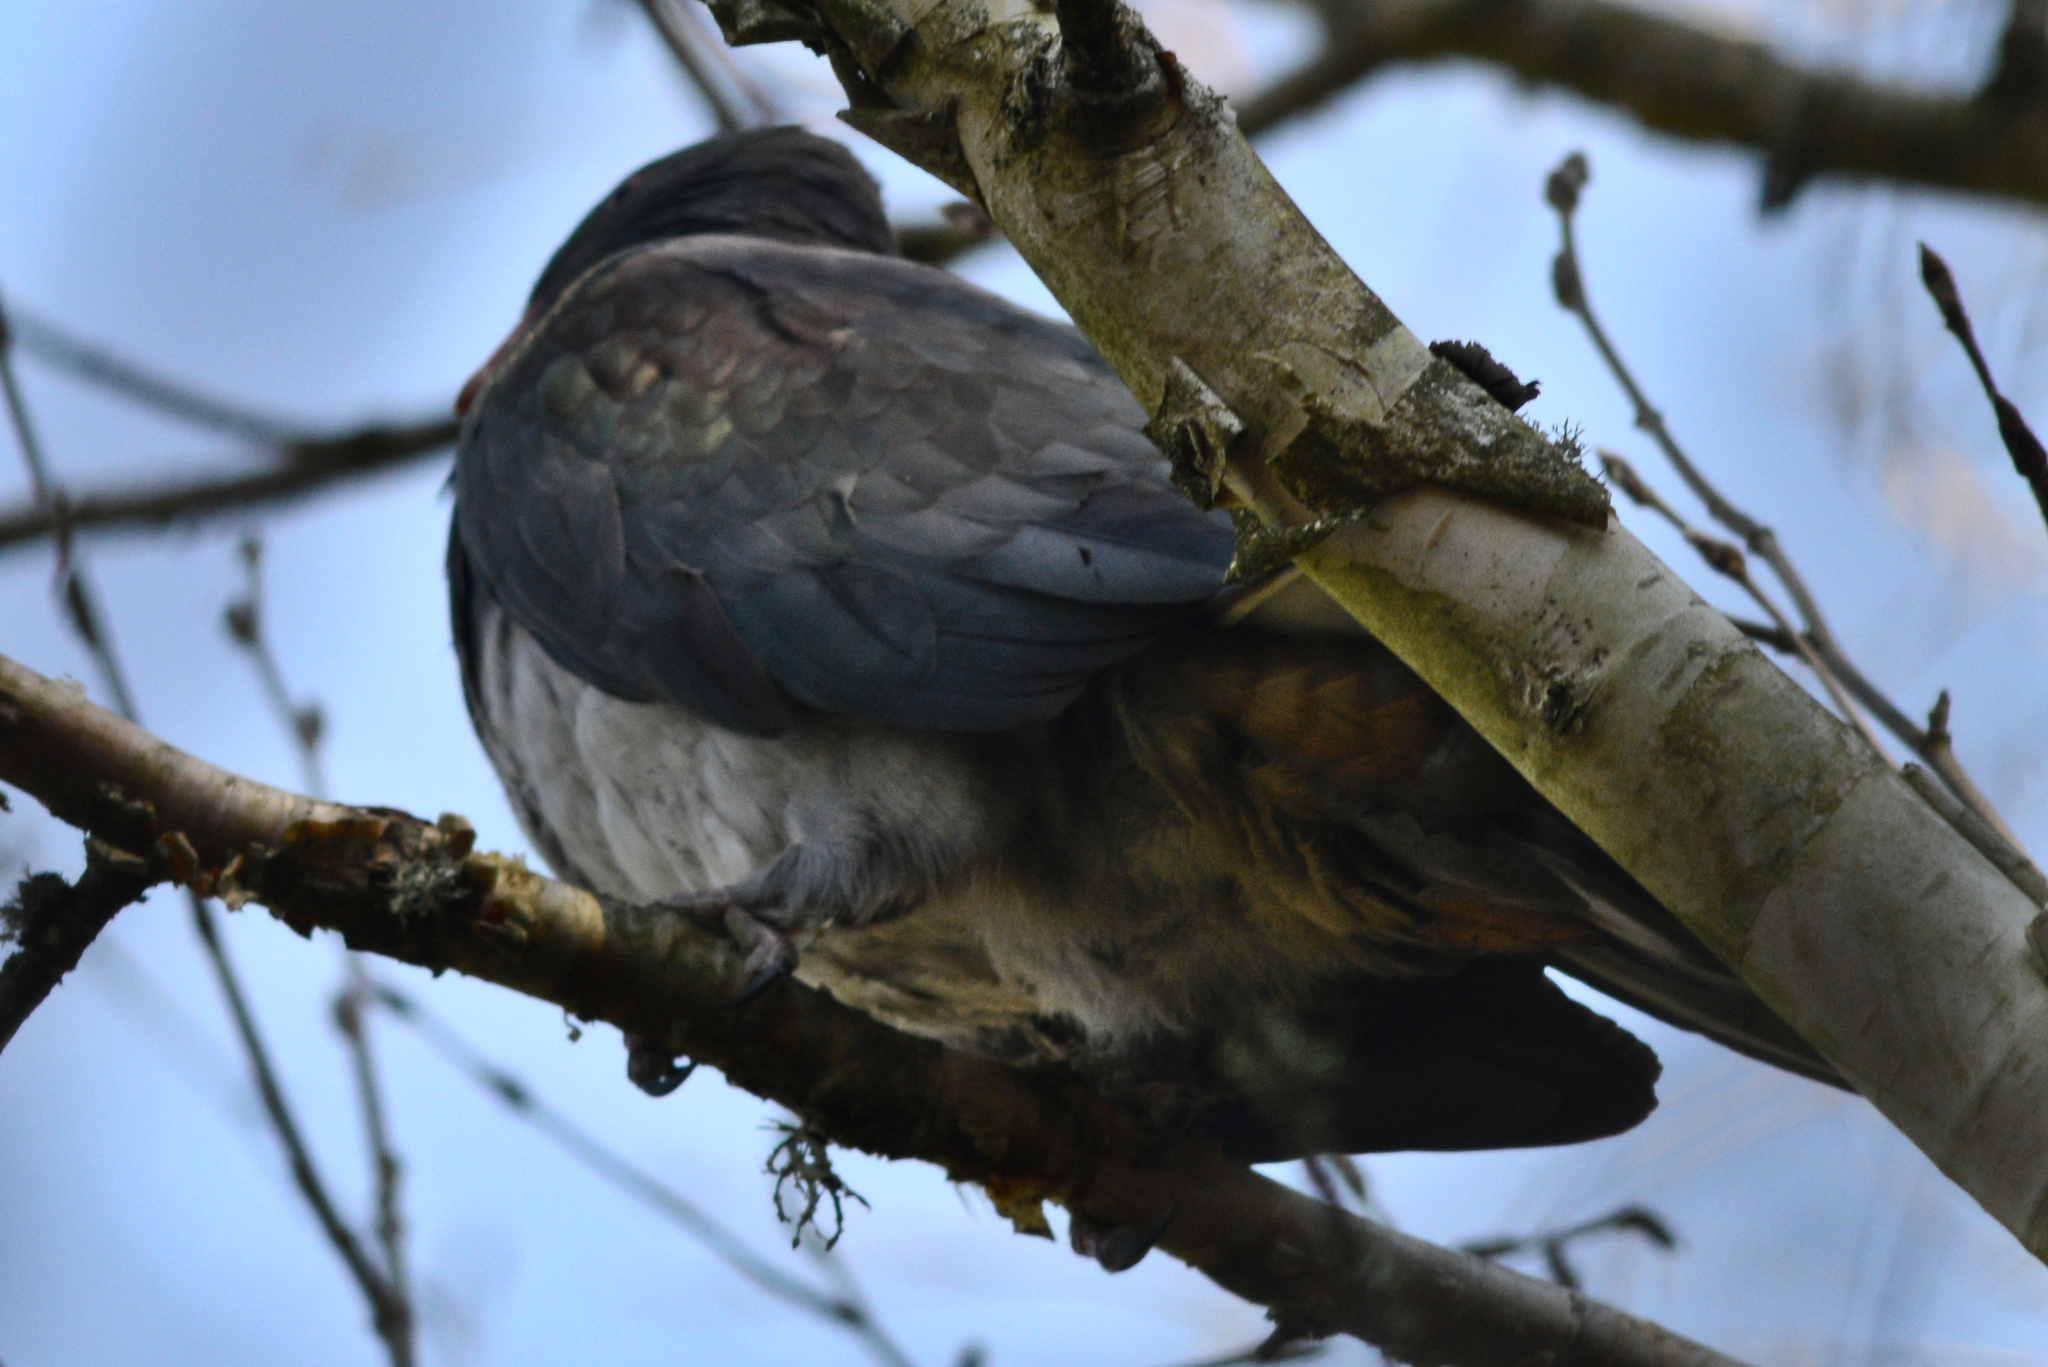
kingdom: Animalia
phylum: Chordata
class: Aves
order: Columbiformes
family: Columbidae
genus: Hemiphaga
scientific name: Hemiphaga novaeseelandiae
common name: New zealand pigeon
